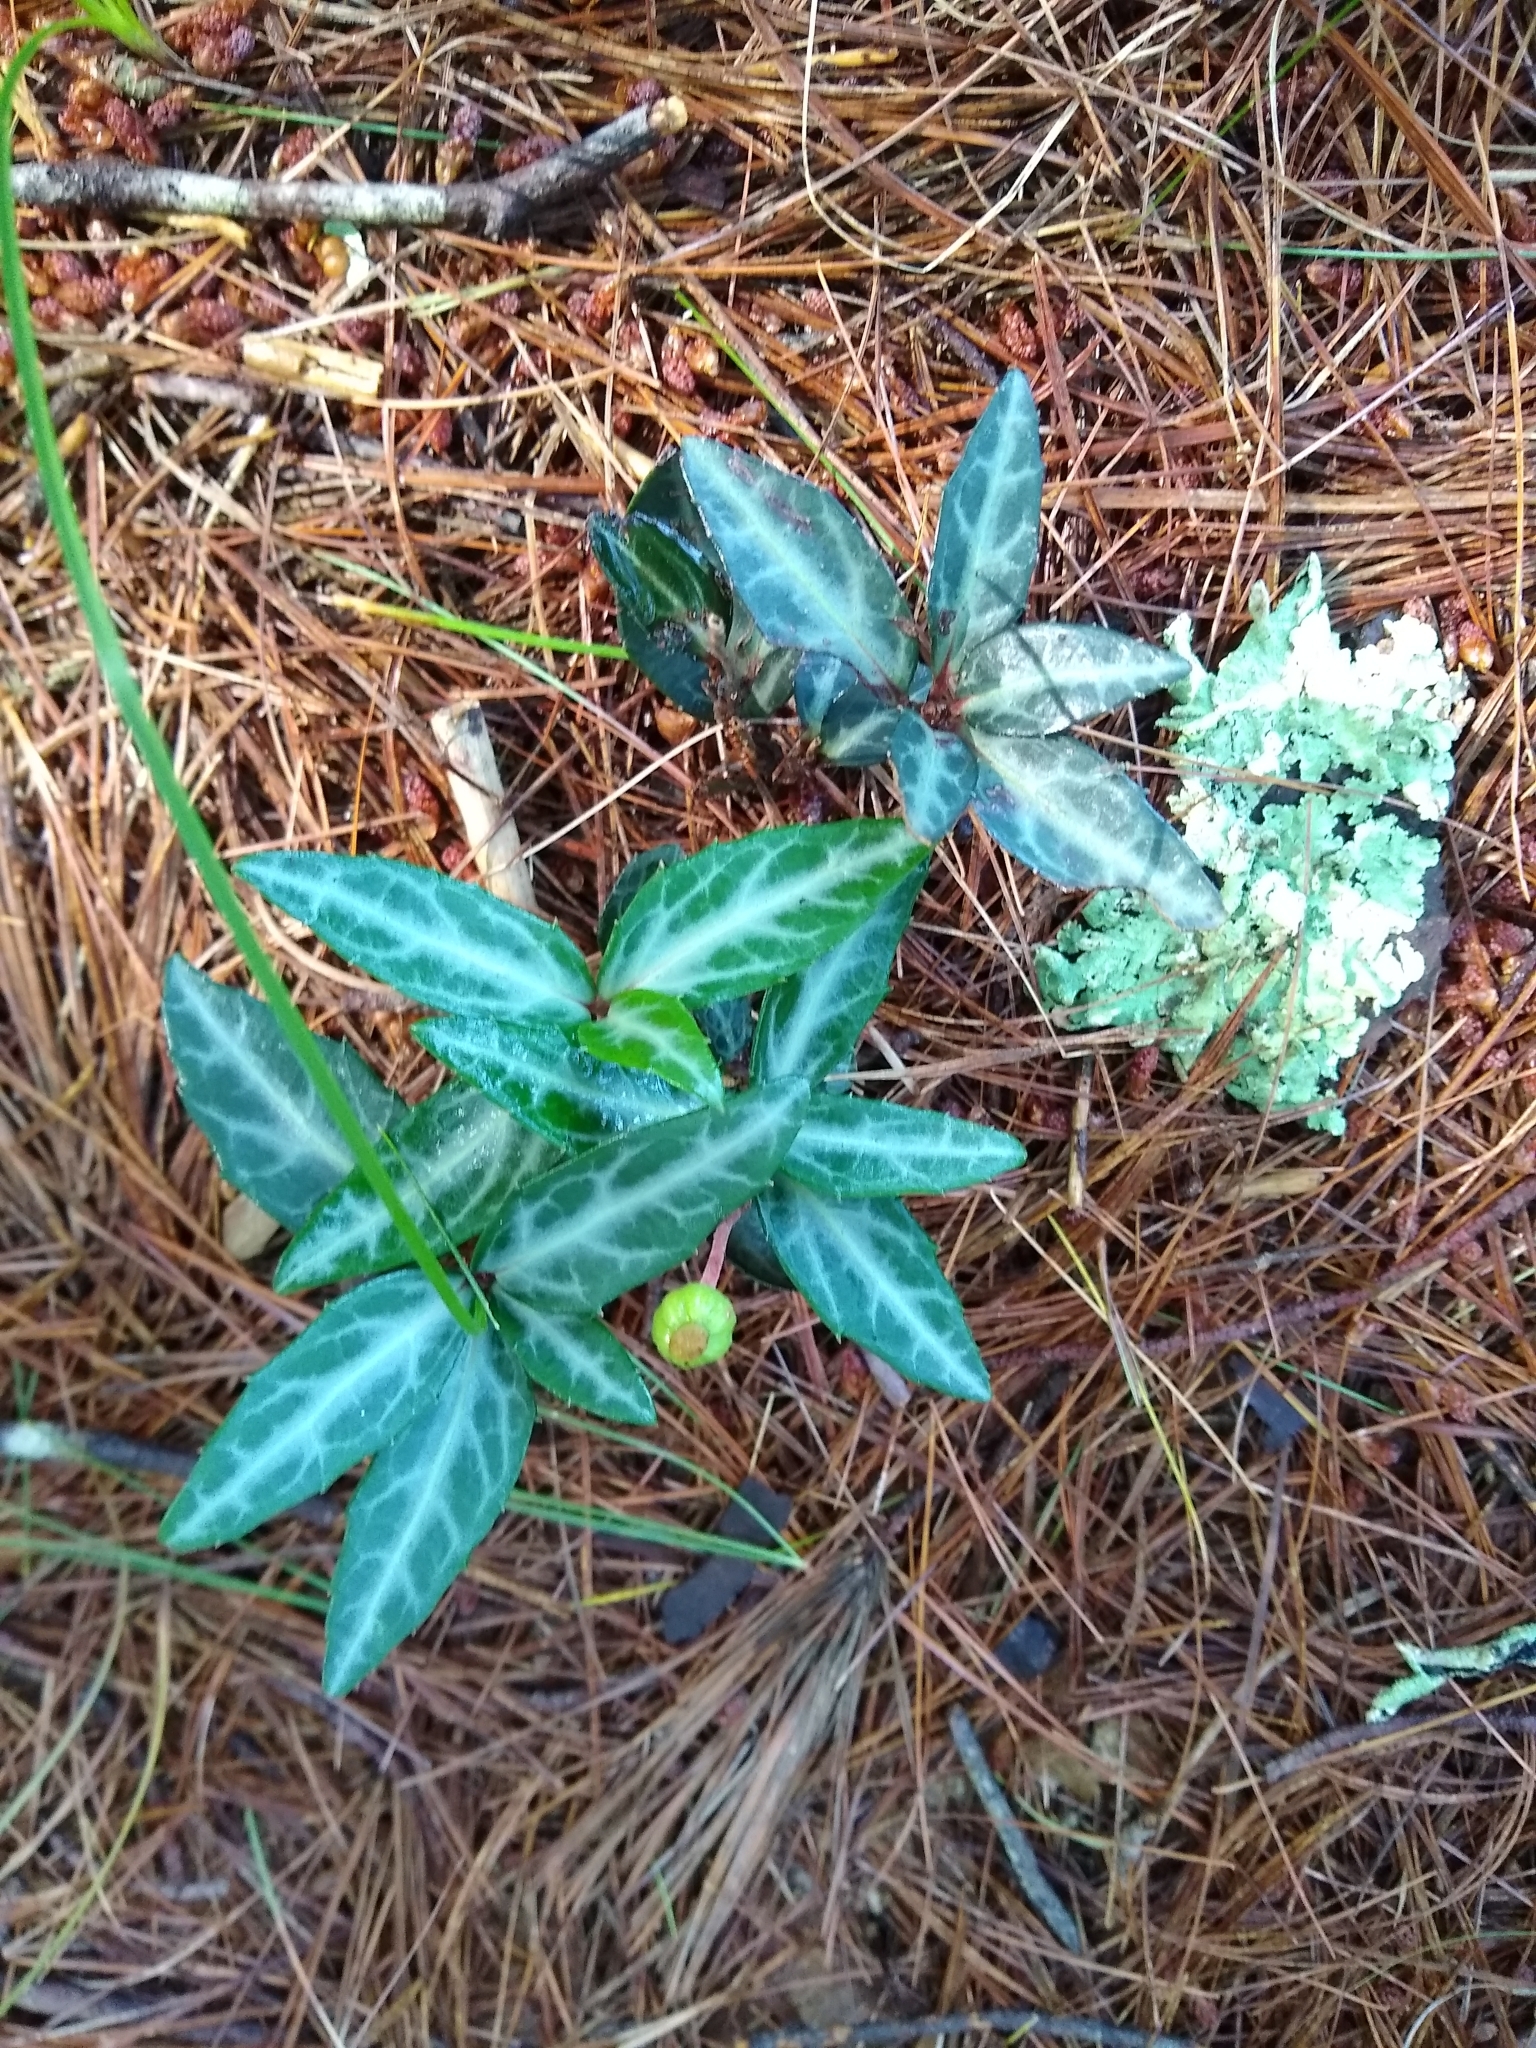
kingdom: Plantae
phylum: Tracheophyta
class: Magnoliopsida
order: Ericales
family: Ericaceae
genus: Chimaphila
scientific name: Chimaphila maculata
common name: Spotted pipsissewa
